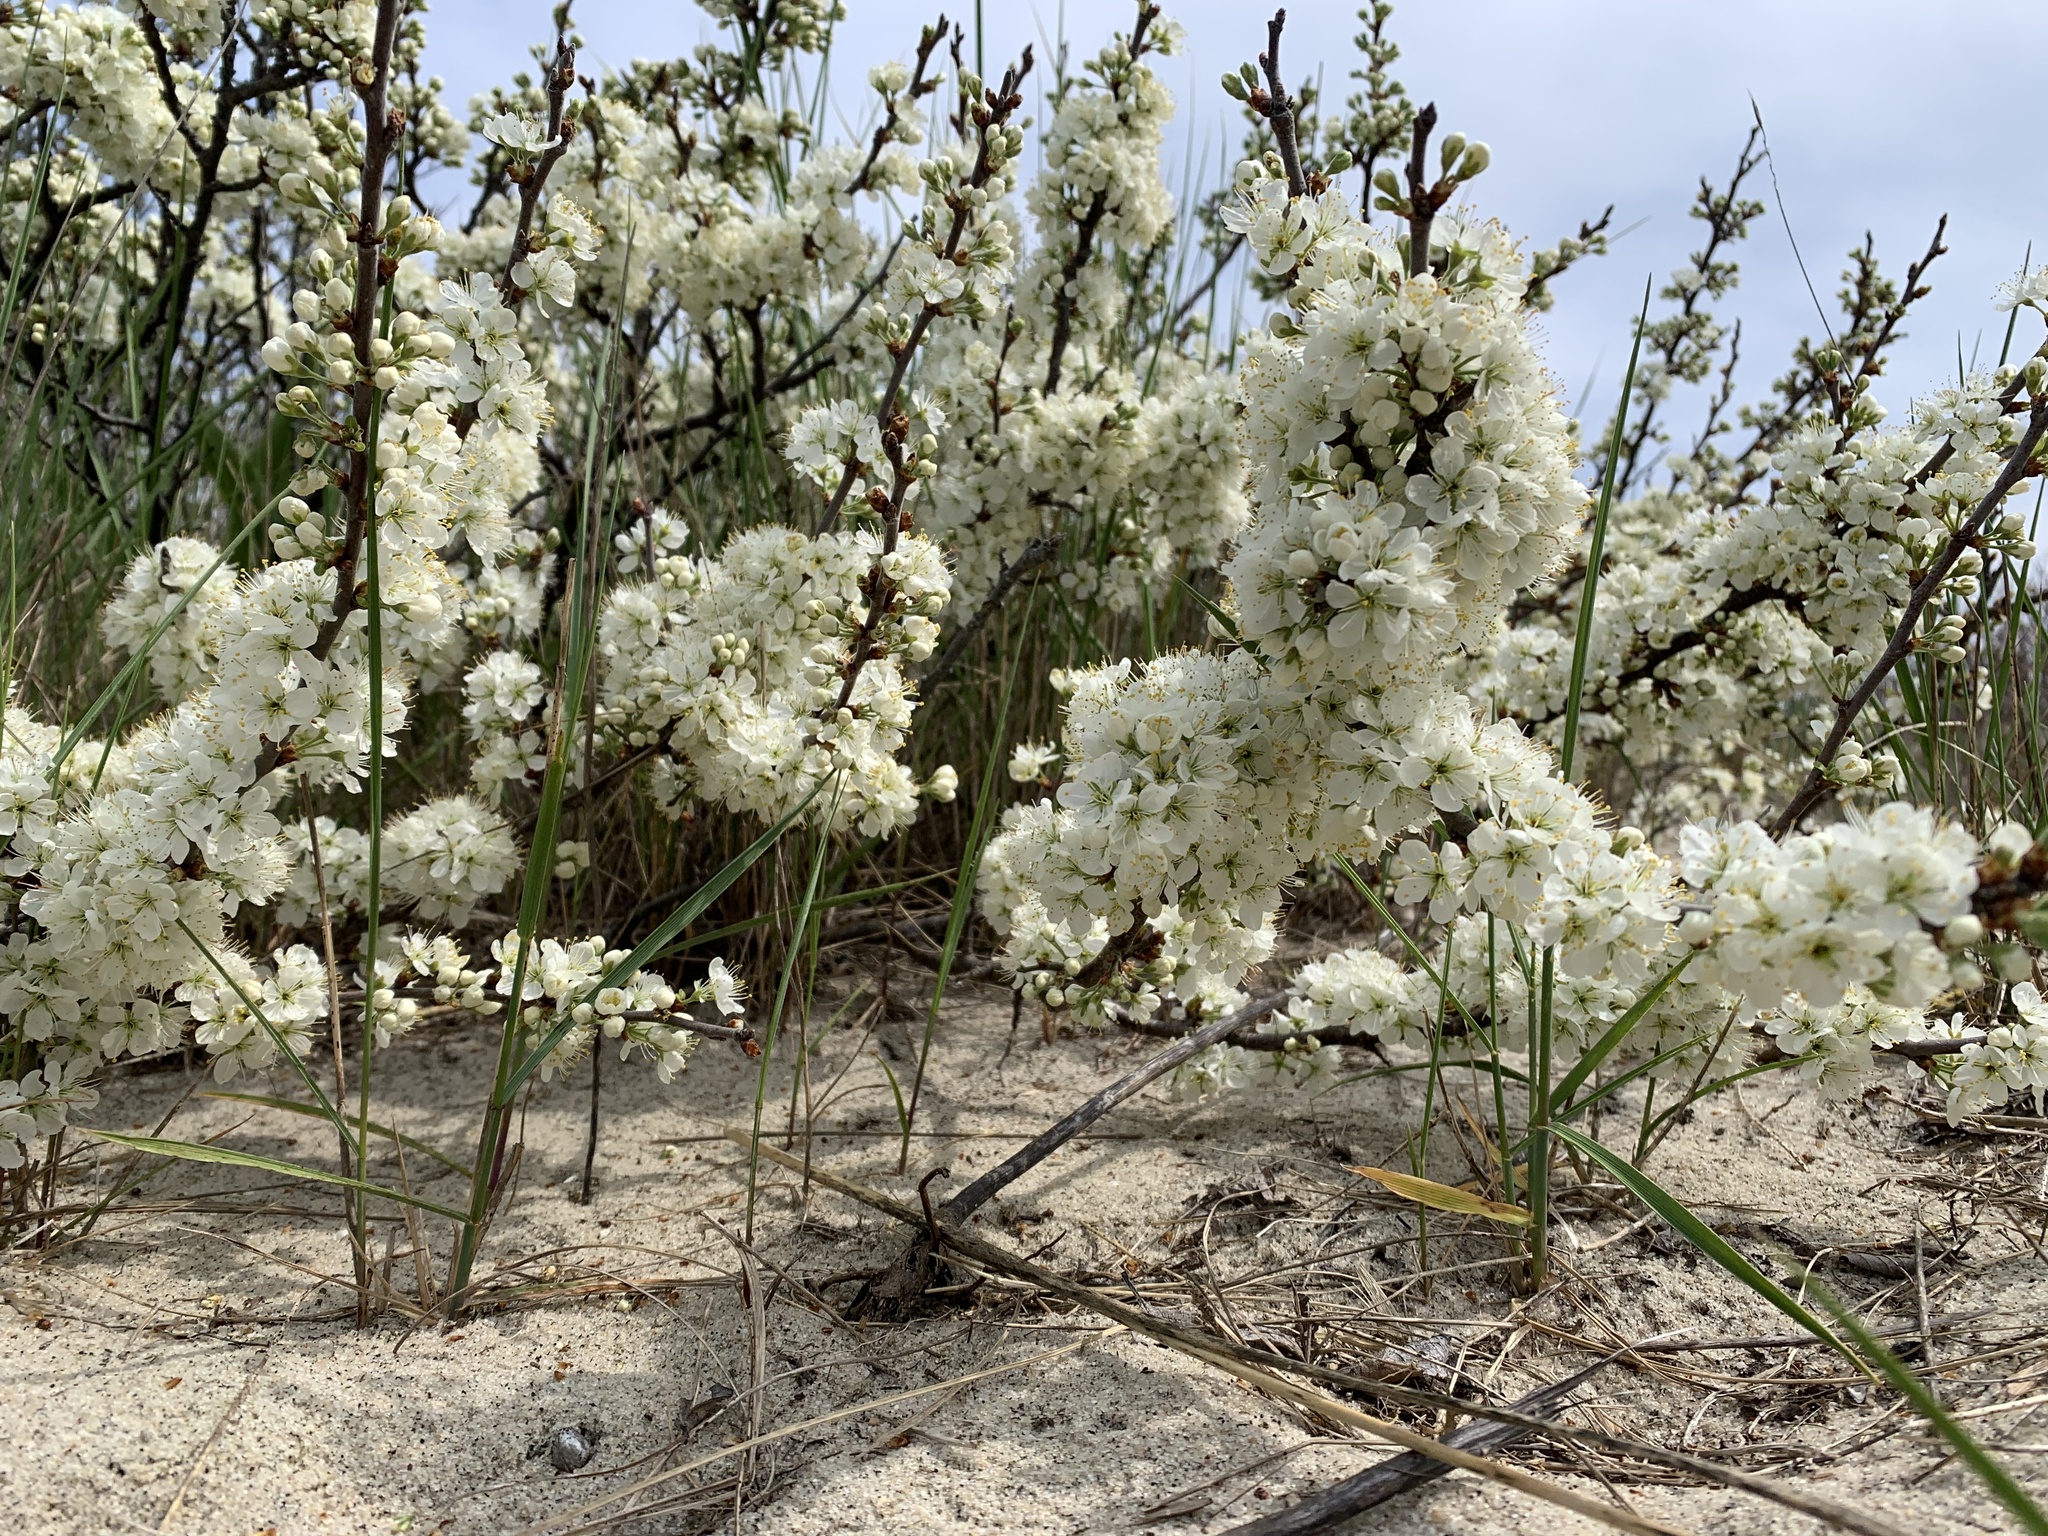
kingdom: Plantae
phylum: Tracheophyta
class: Magnoliopsida
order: Rosales
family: Rosaceae
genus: Prunus
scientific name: Prunus maritima
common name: Beach plum
